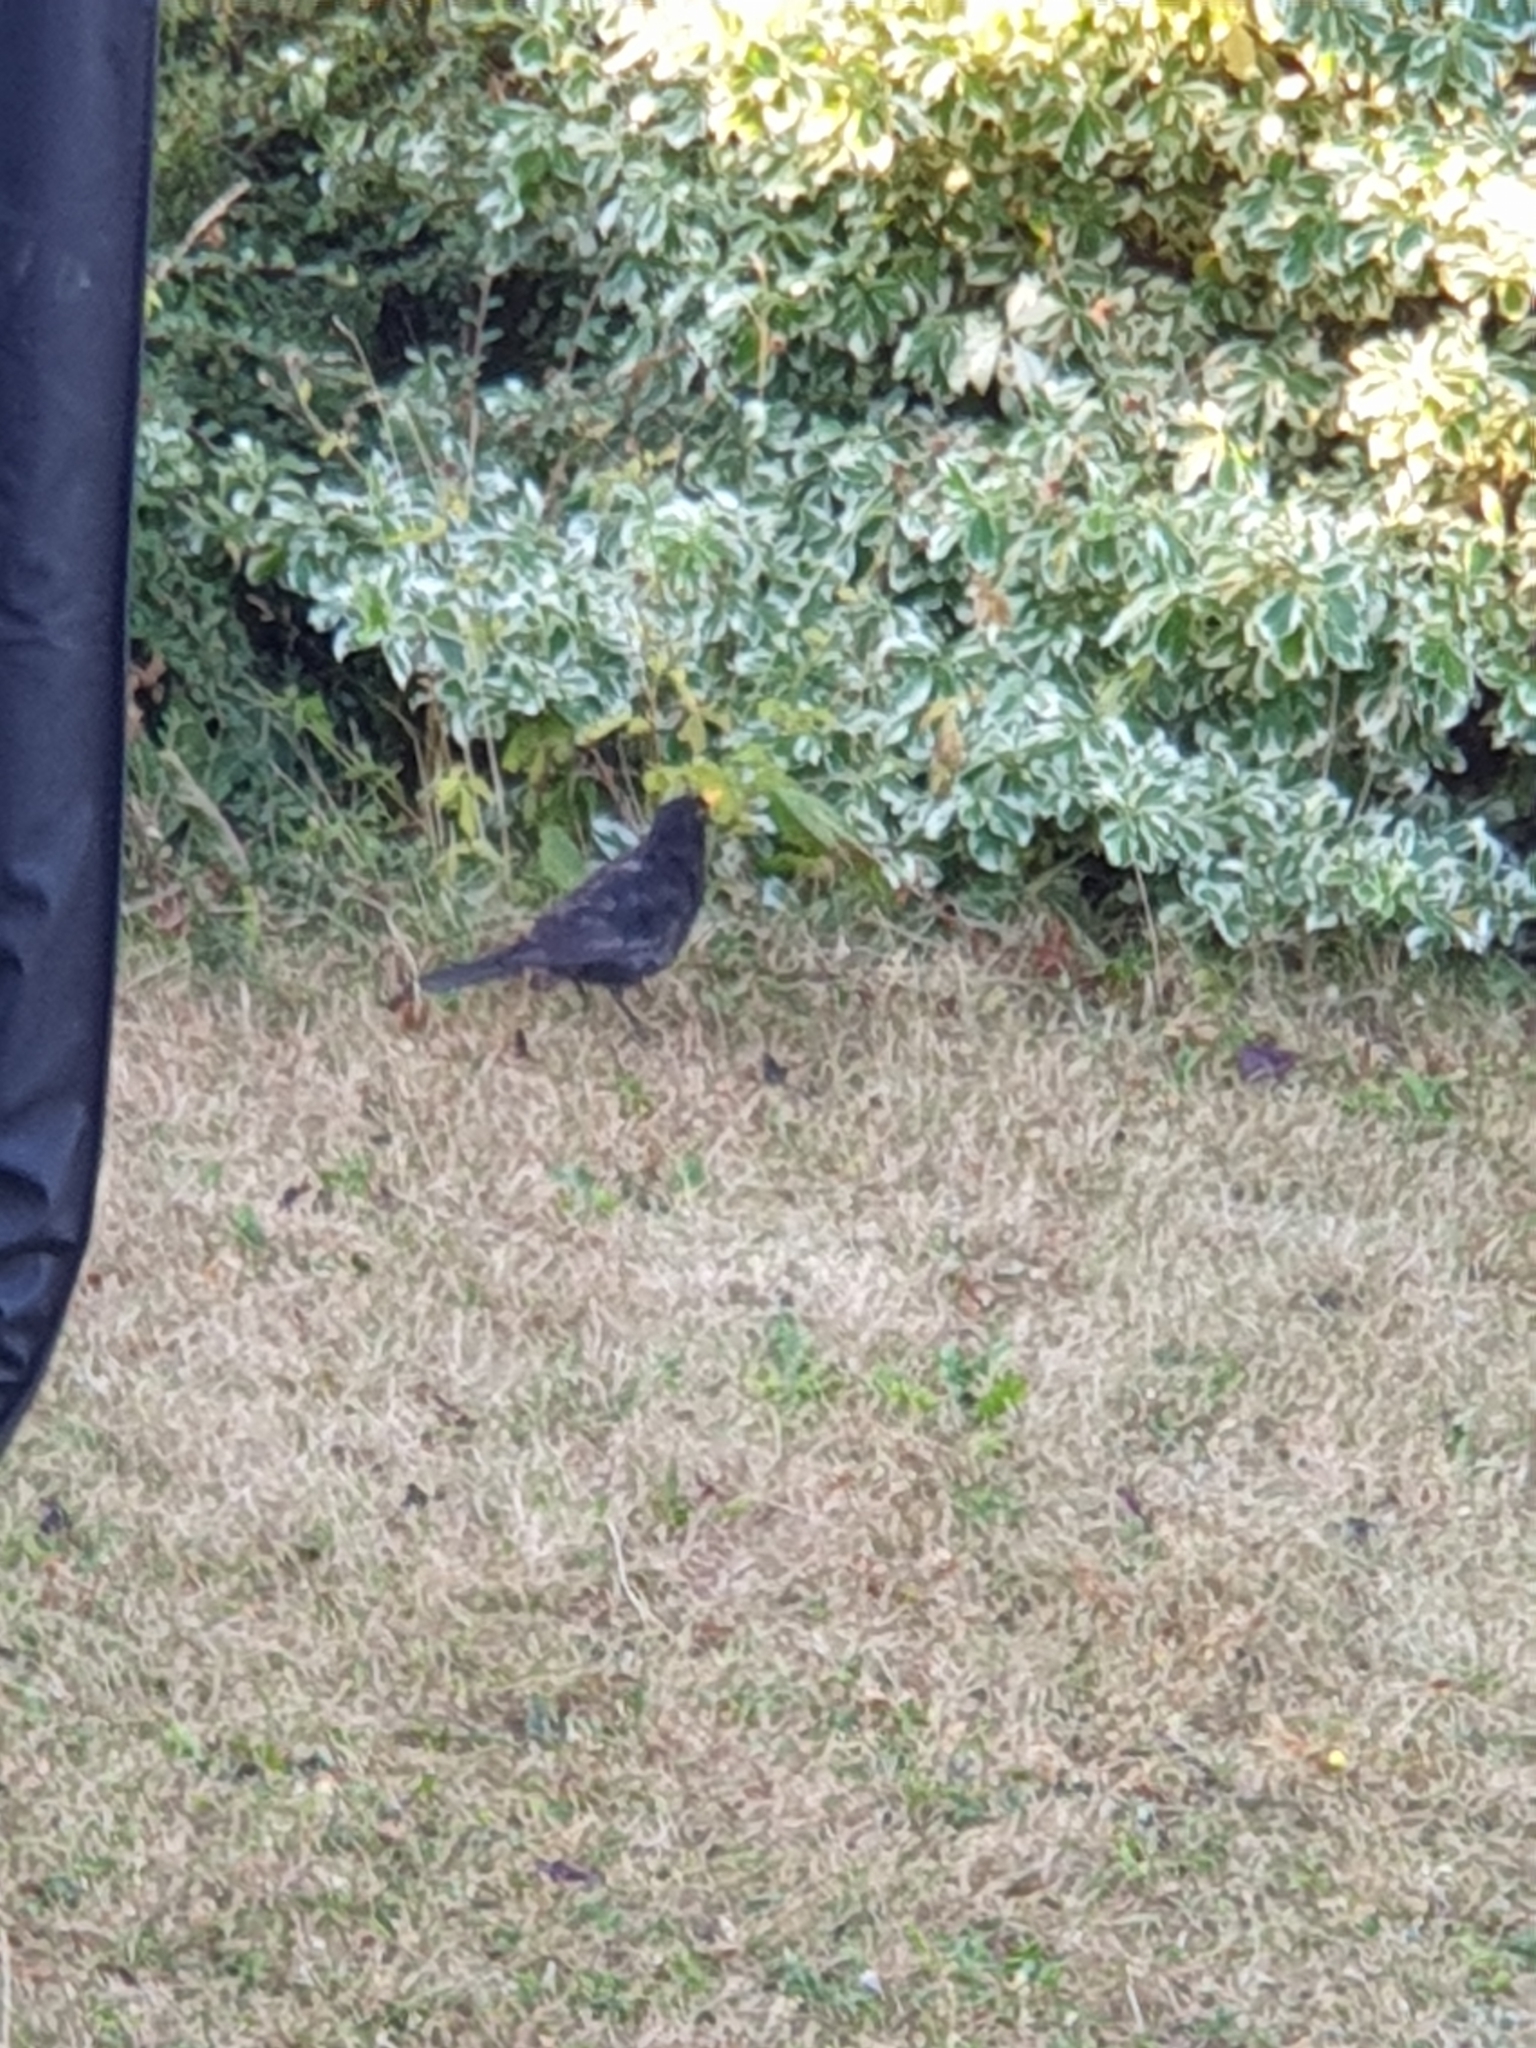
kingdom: Animalia
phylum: Chordata
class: Aves
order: Passeriformes
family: Turdidae
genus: Turdus
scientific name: Turdus merula
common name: Common blackbird
